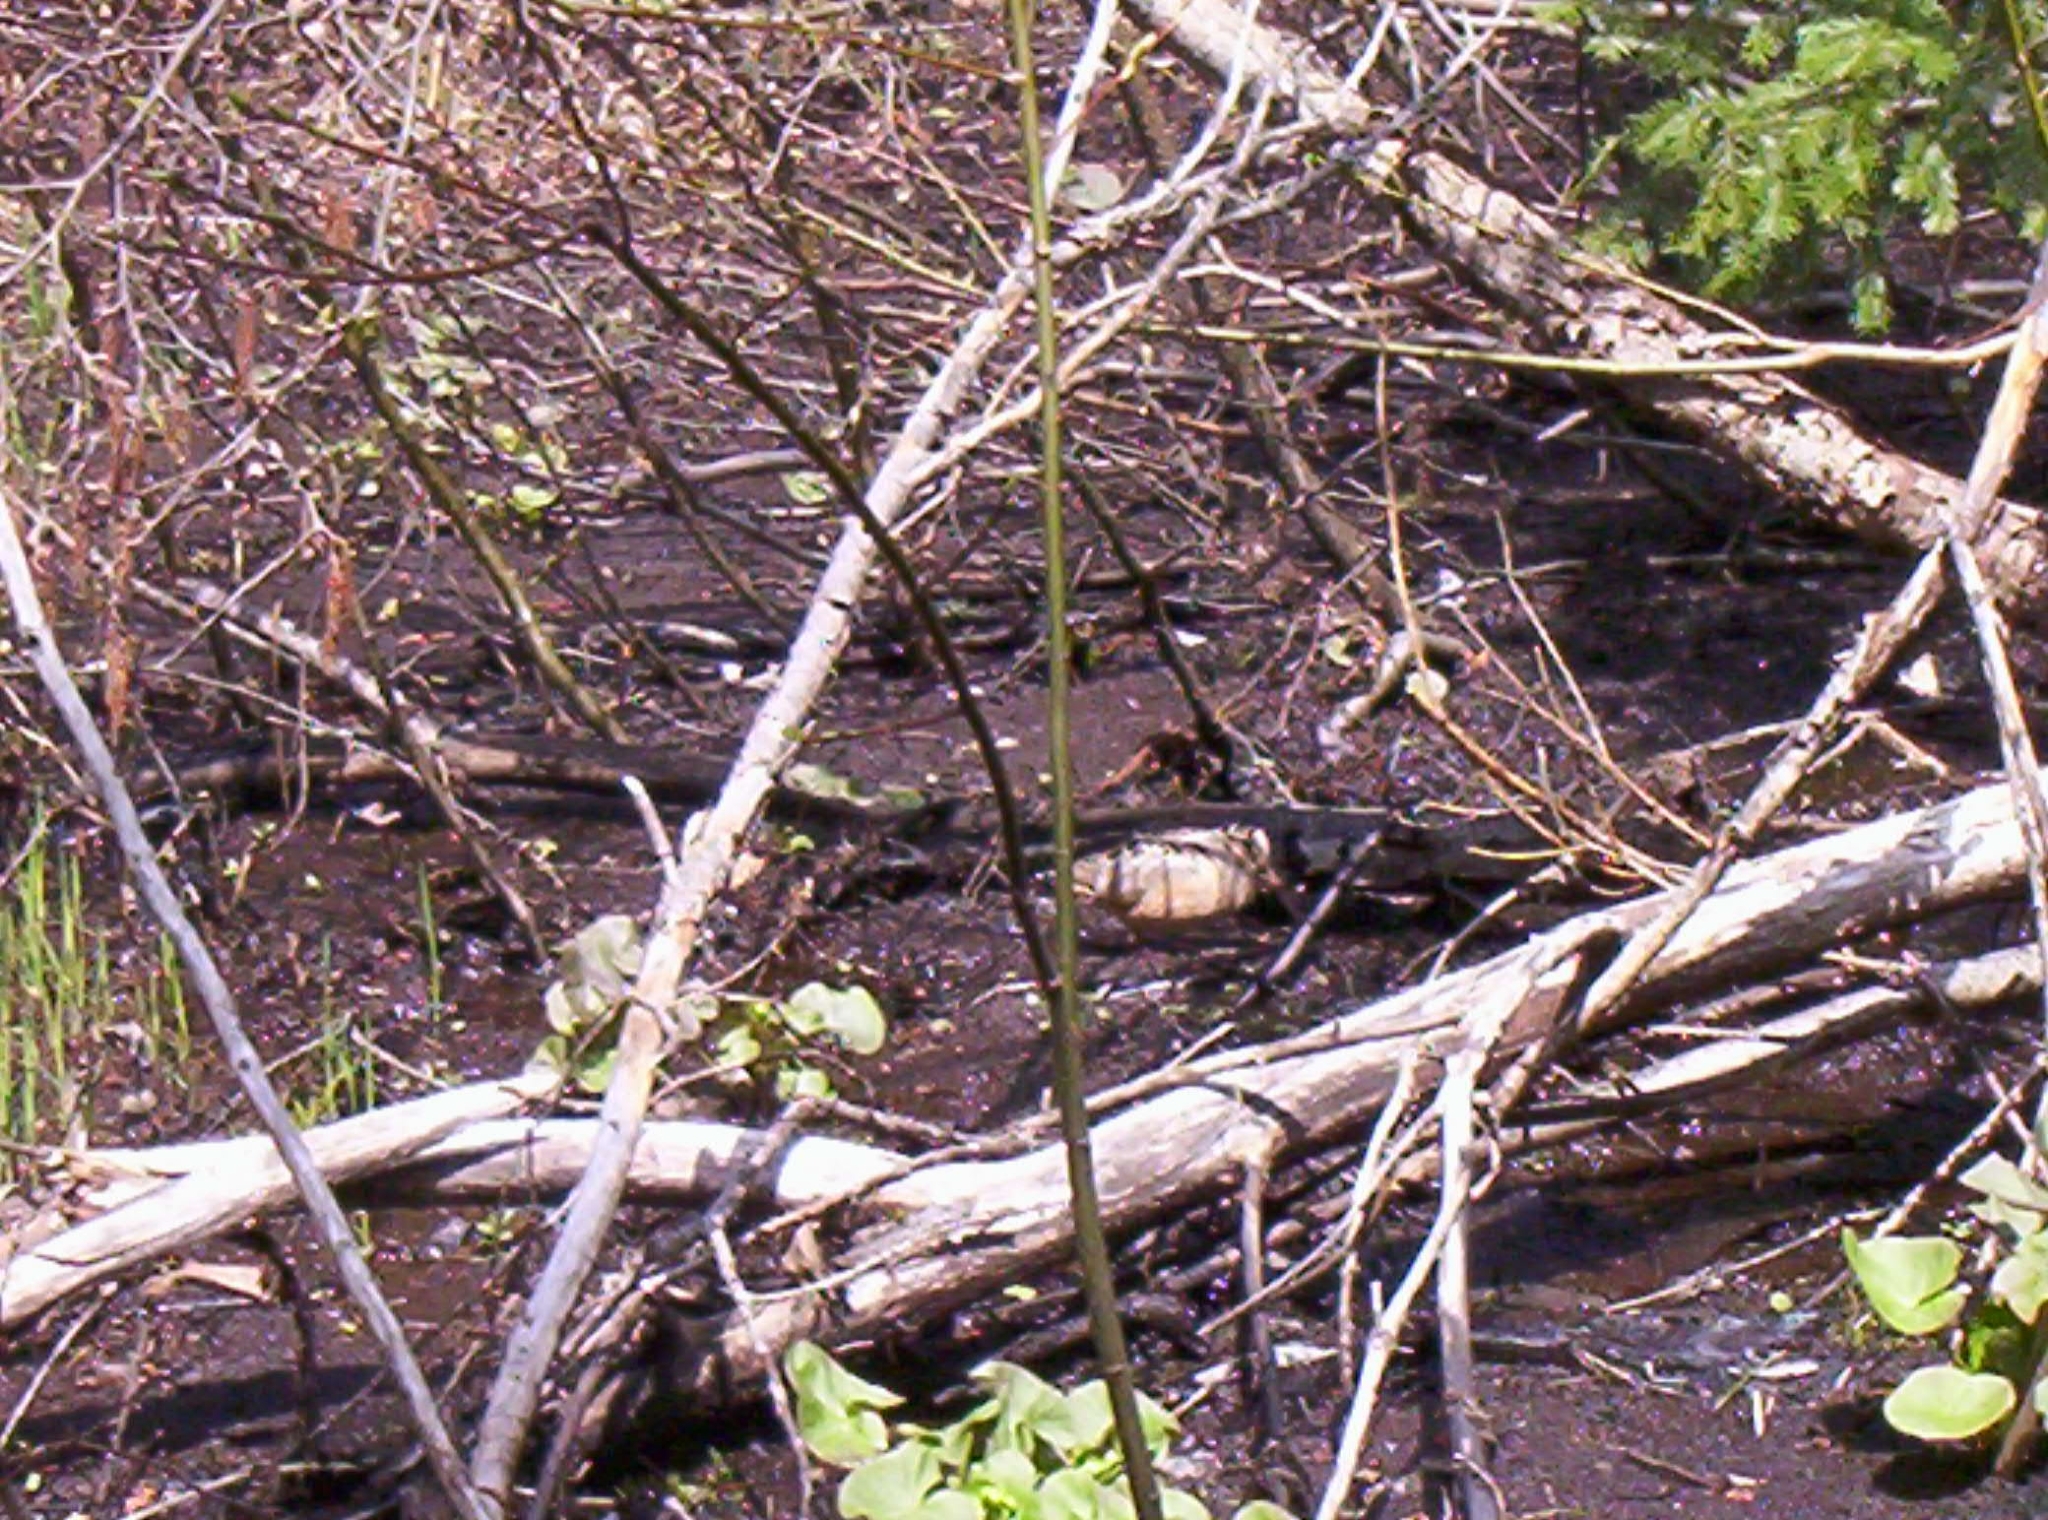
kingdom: Animalia
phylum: Chordata
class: Aves
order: Charadriiformes
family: Scolopacidae
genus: Scolopax
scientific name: Scolopax minor
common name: American woodcock
